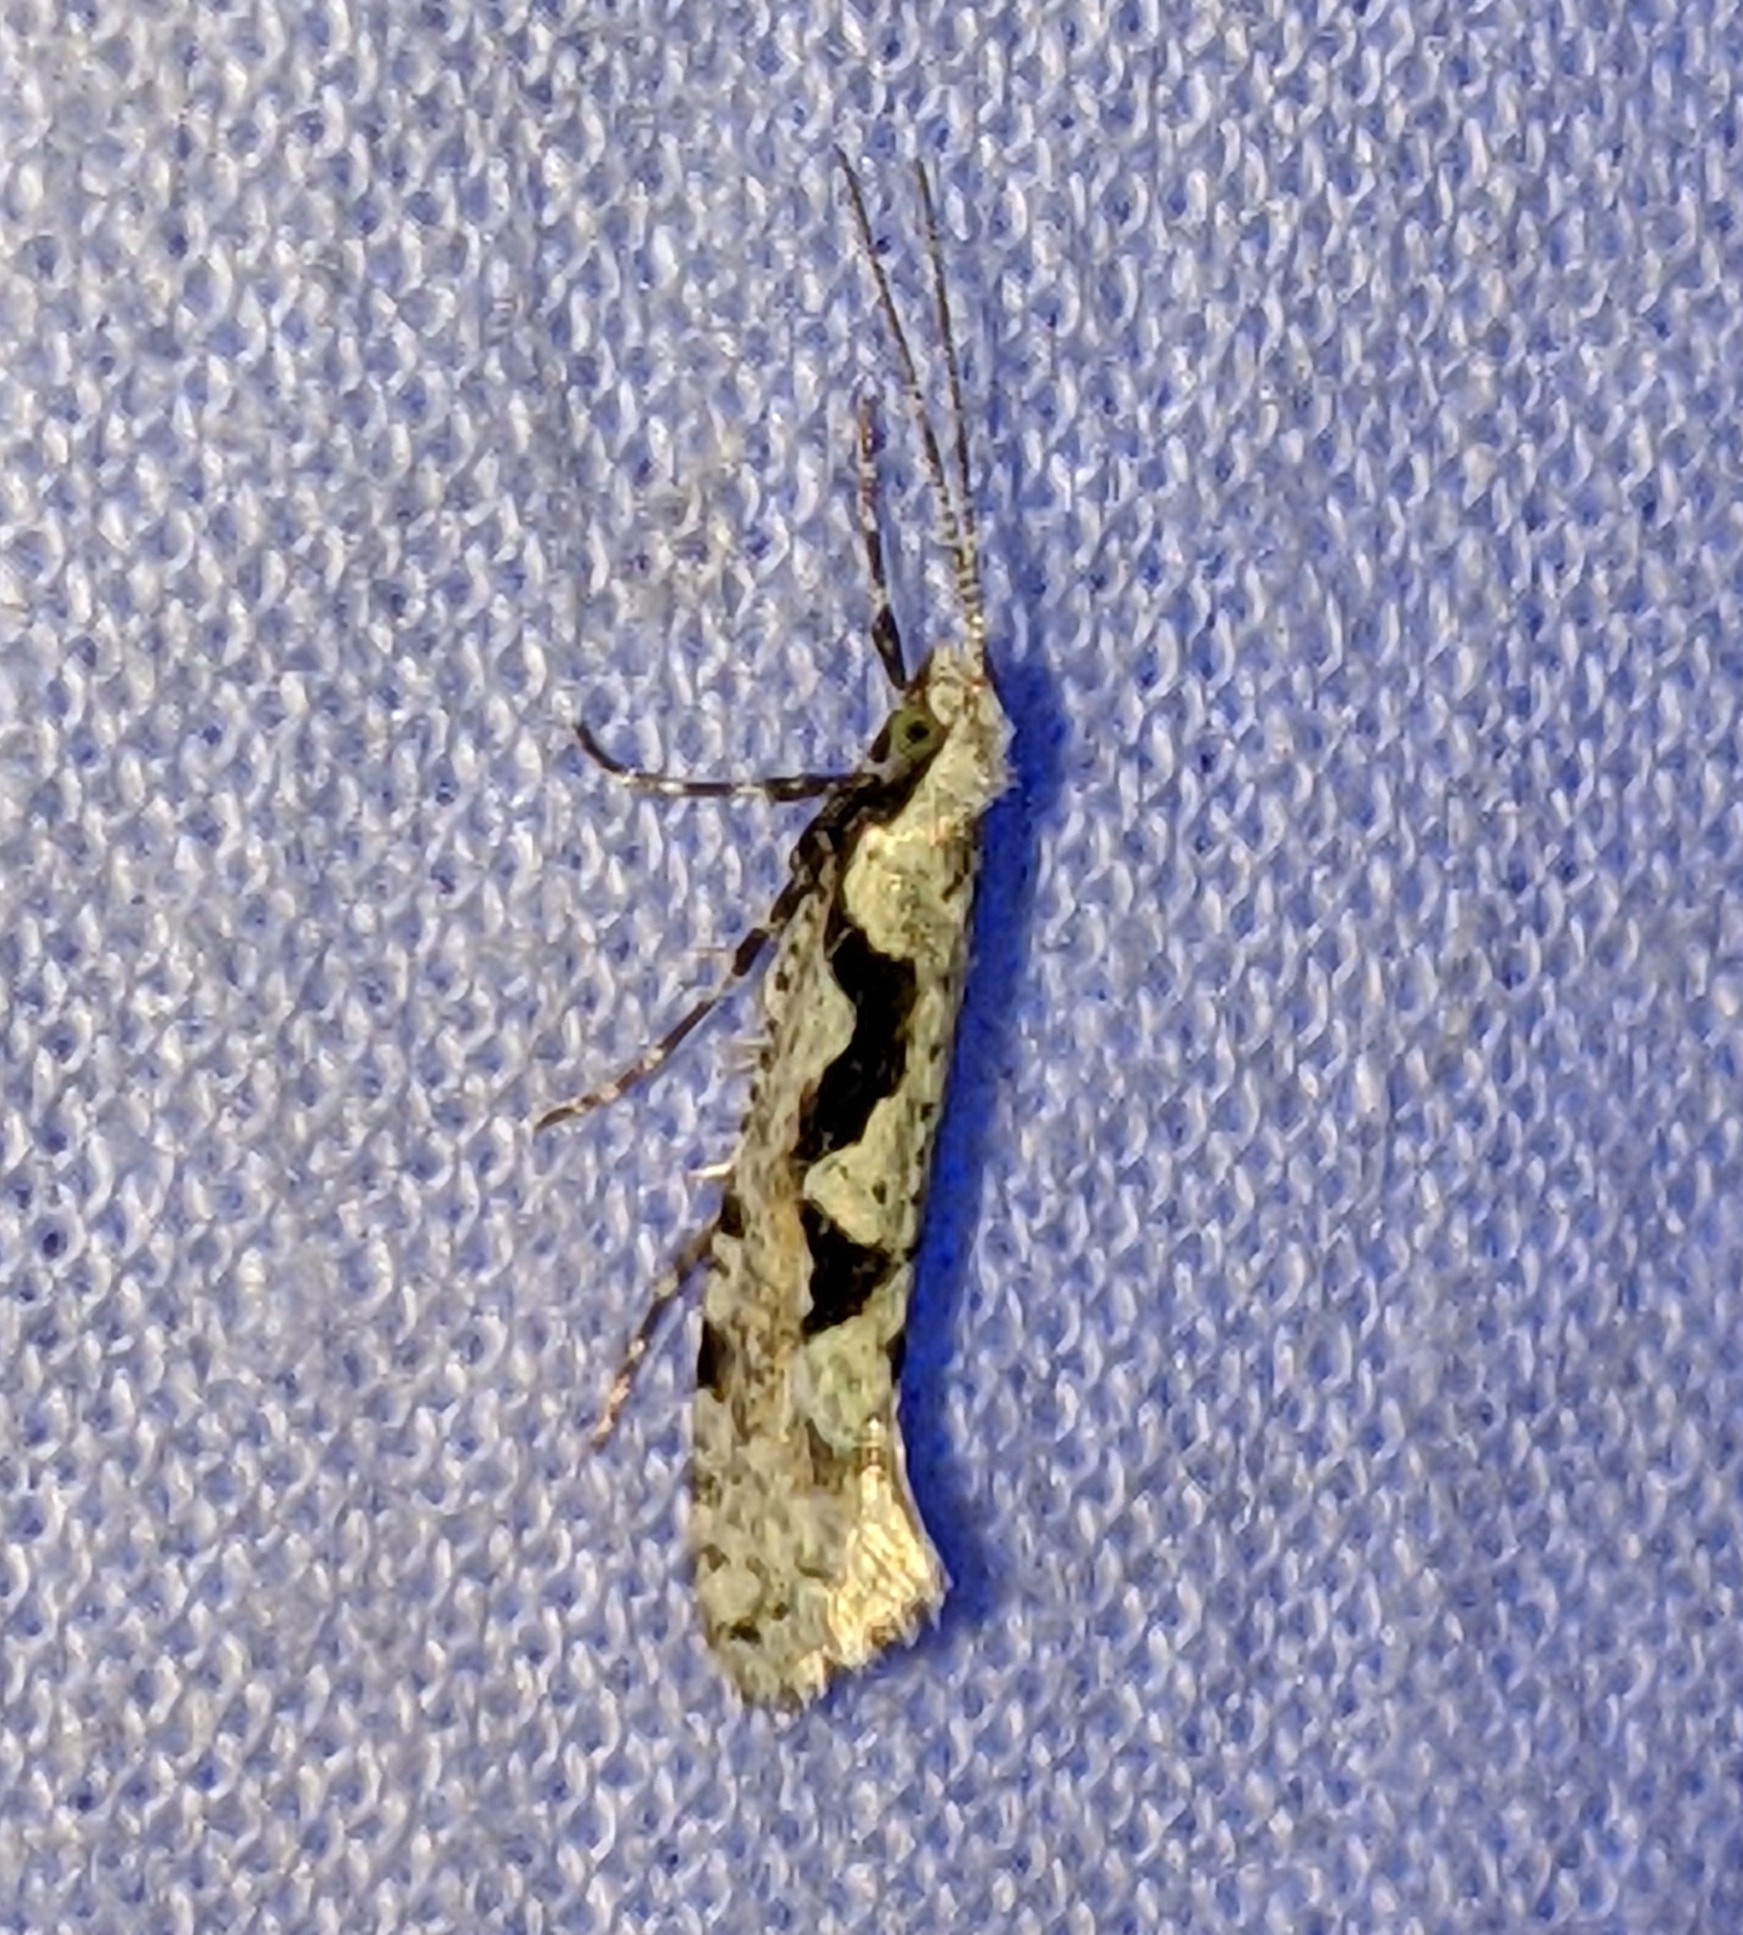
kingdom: Animalia
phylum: Arthropoda
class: Insecta
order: Lepidoptera
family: Plutellidae
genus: Rhigognostis
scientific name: Rhigognostis interrupta
